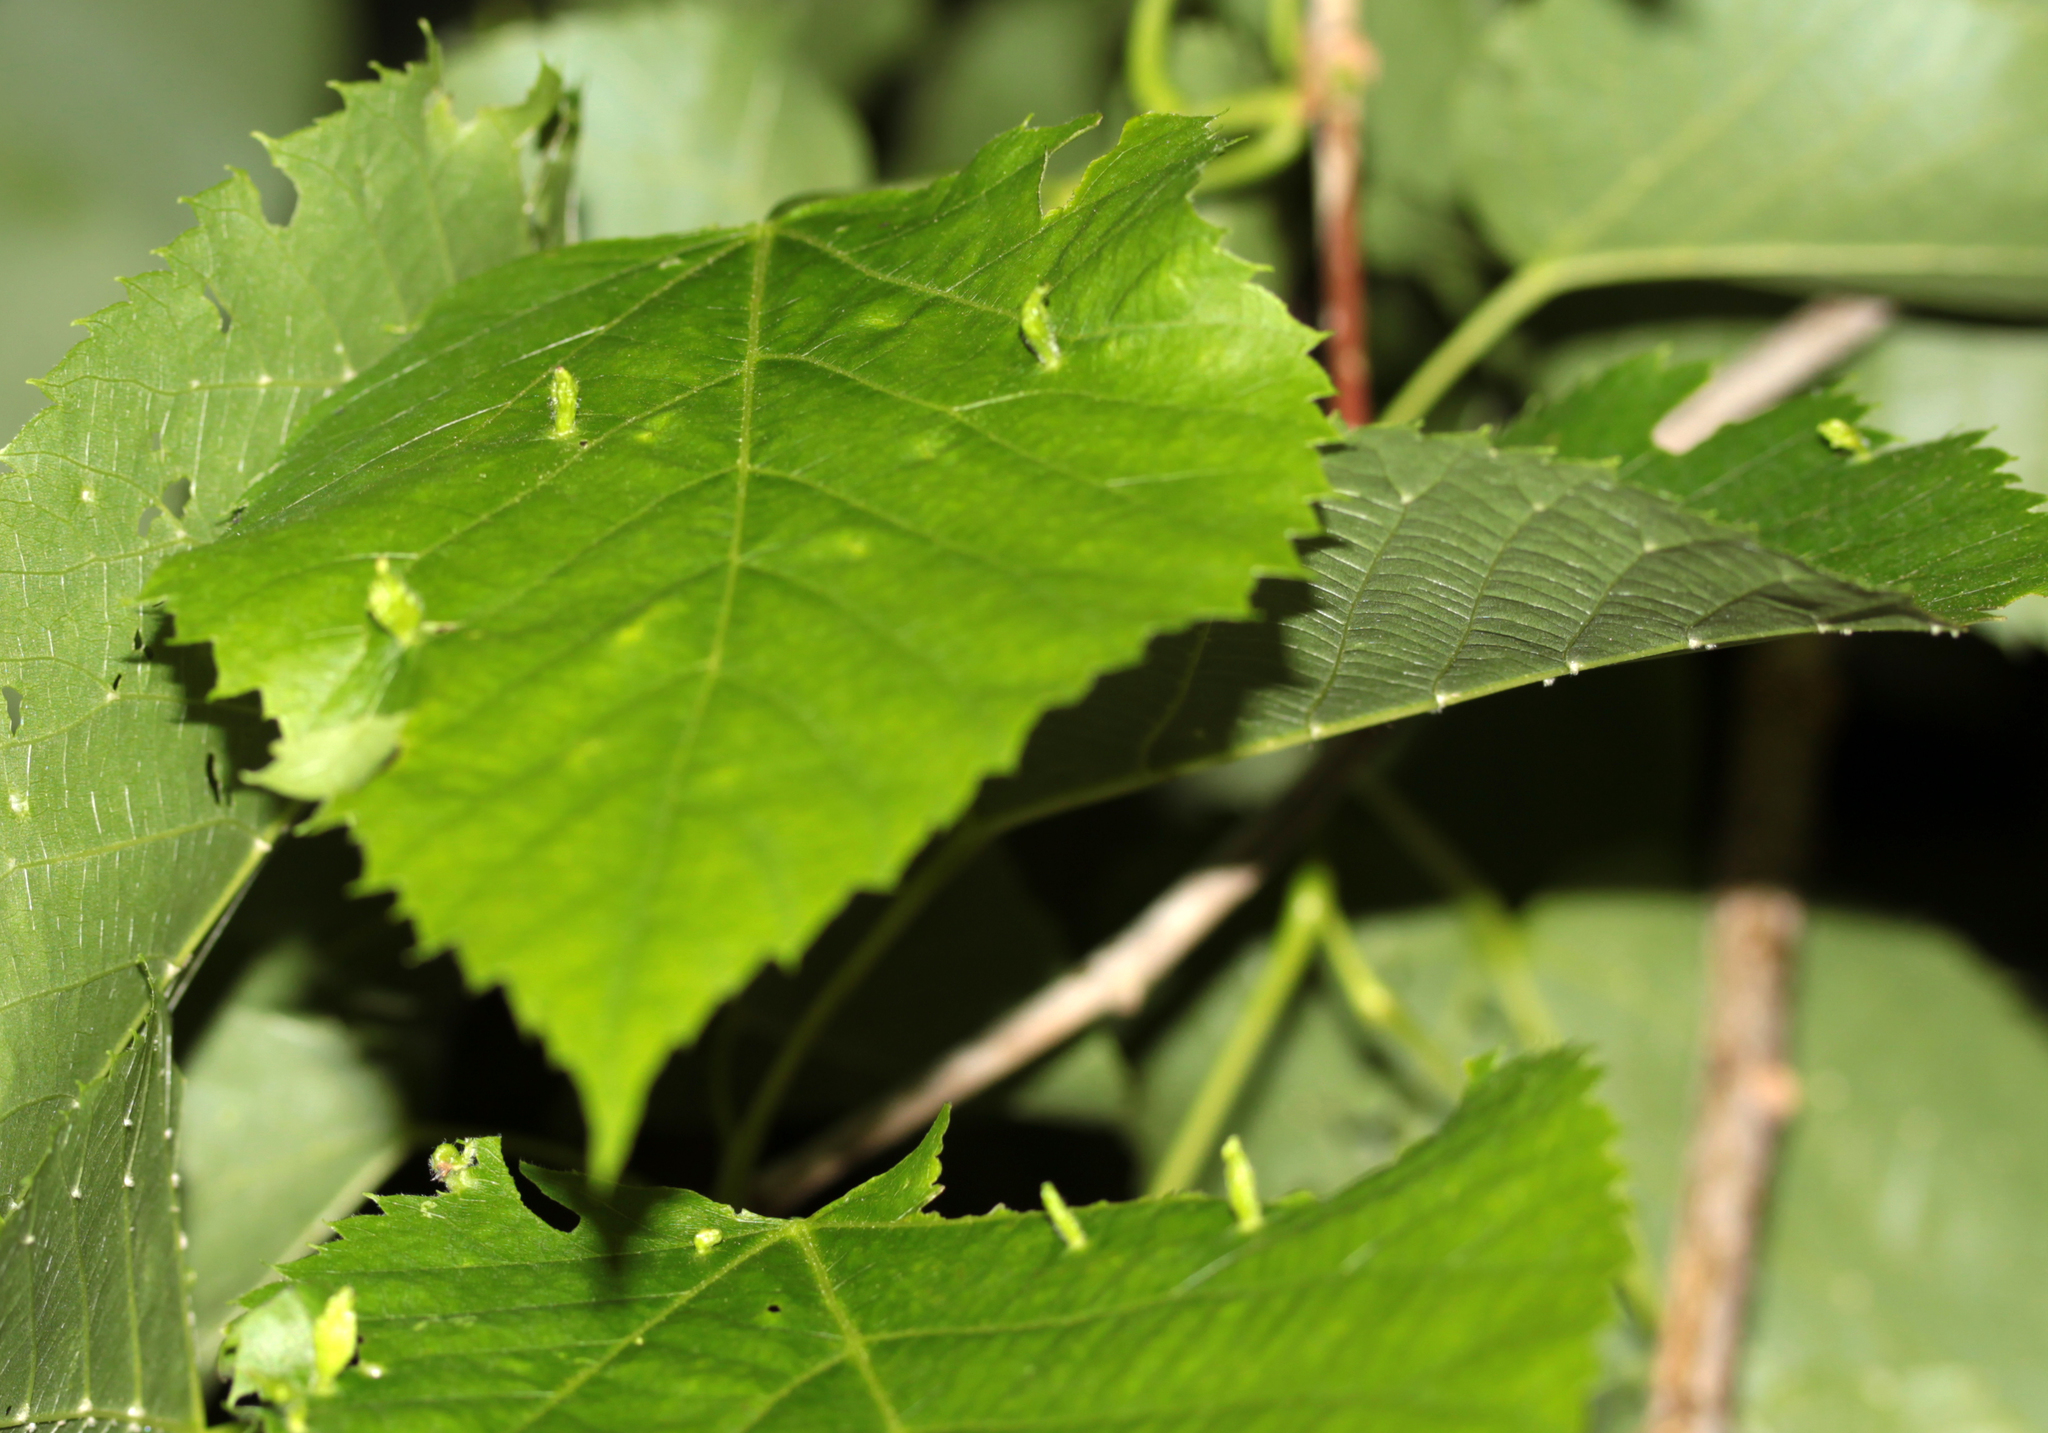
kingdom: Animalia
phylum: Arthropoda
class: Arachnida
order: Trombidiformes
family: Eriophyidae
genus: Eriophyes
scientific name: Eriophyes tiliae
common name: Red nail gall mite
